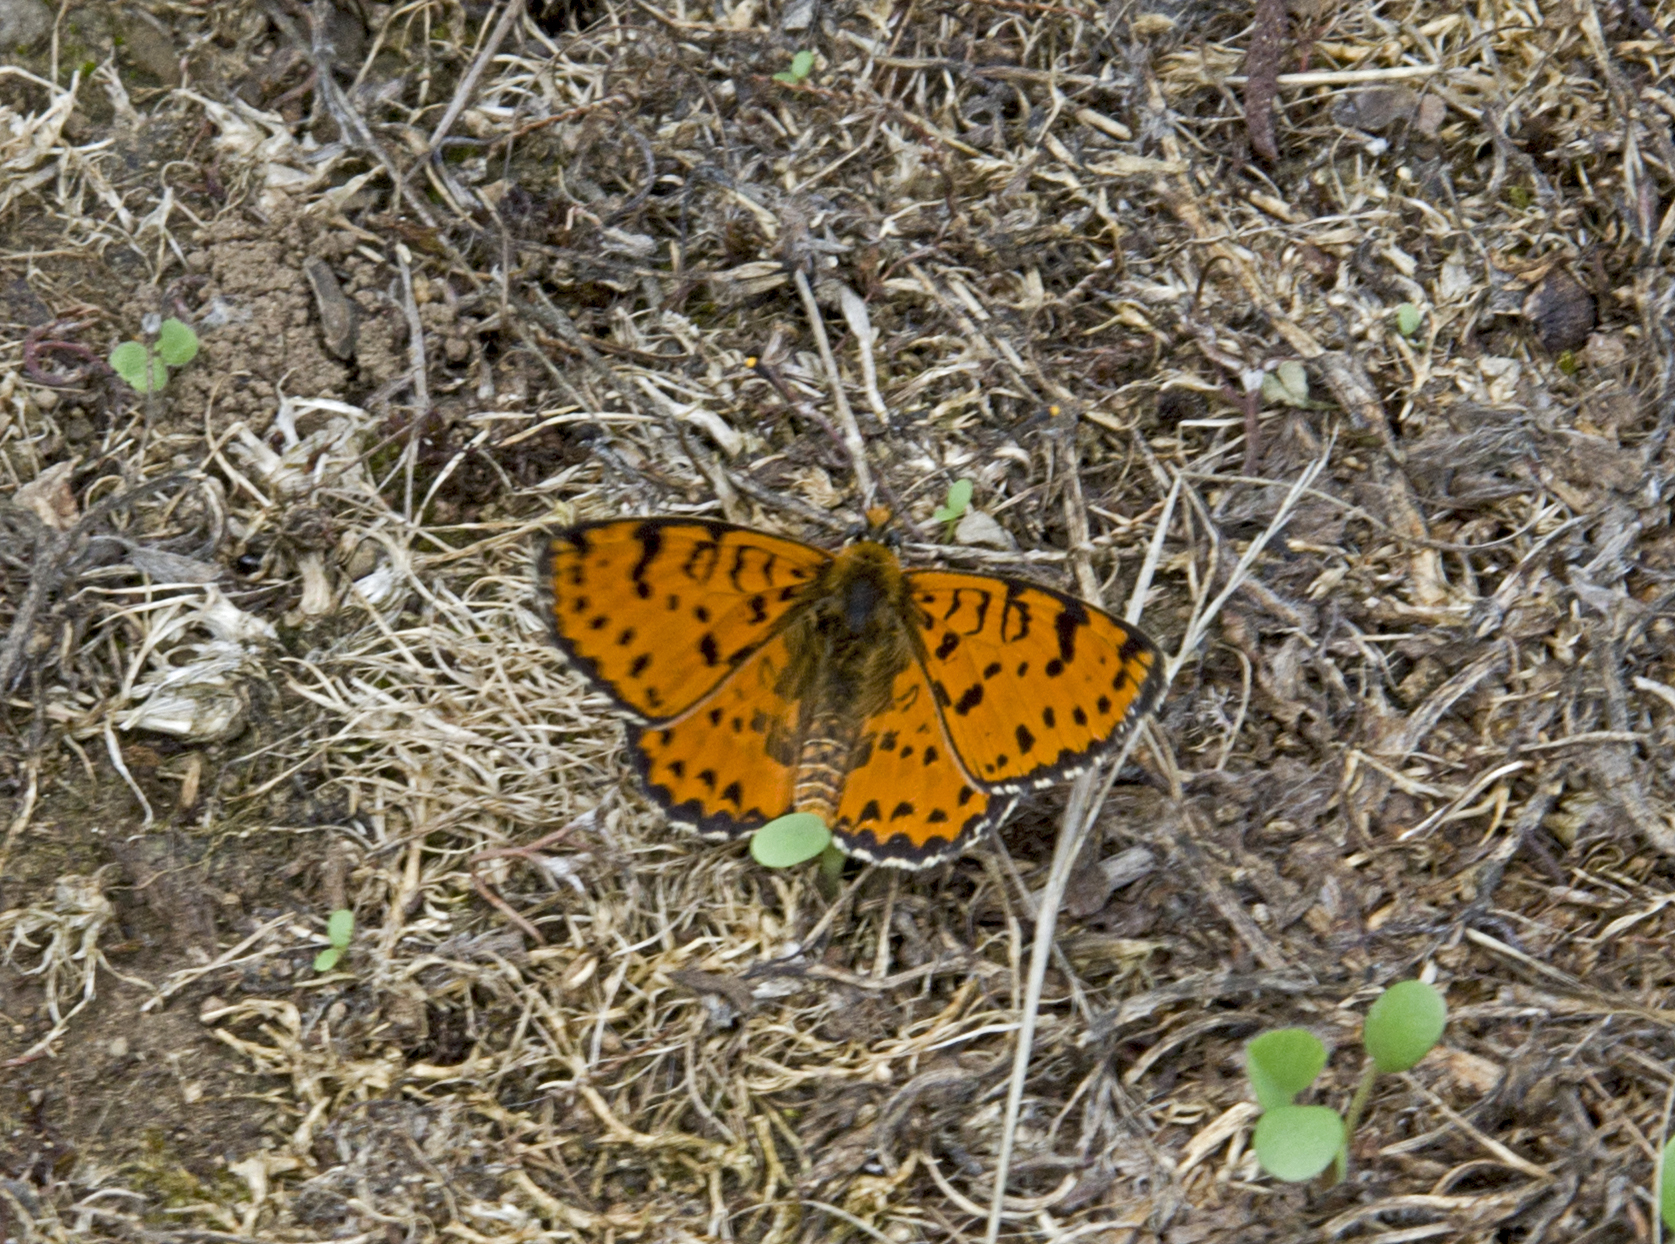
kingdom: Animalia
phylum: Arthropoda
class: Insecta
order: Lepidoptera
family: Nymphalidae
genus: Melitaea
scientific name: Melitaea didyma
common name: Spotted fritillary
